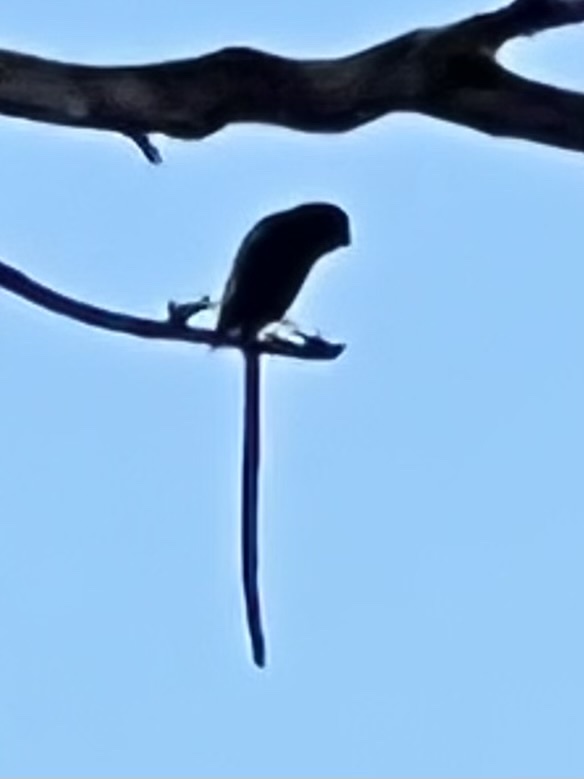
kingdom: Animalia
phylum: Chordata
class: Aves
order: Passeriformes
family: Laniidae
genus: Urolestes
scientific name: Urolestes melanoleucus
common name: Magpie shrike
